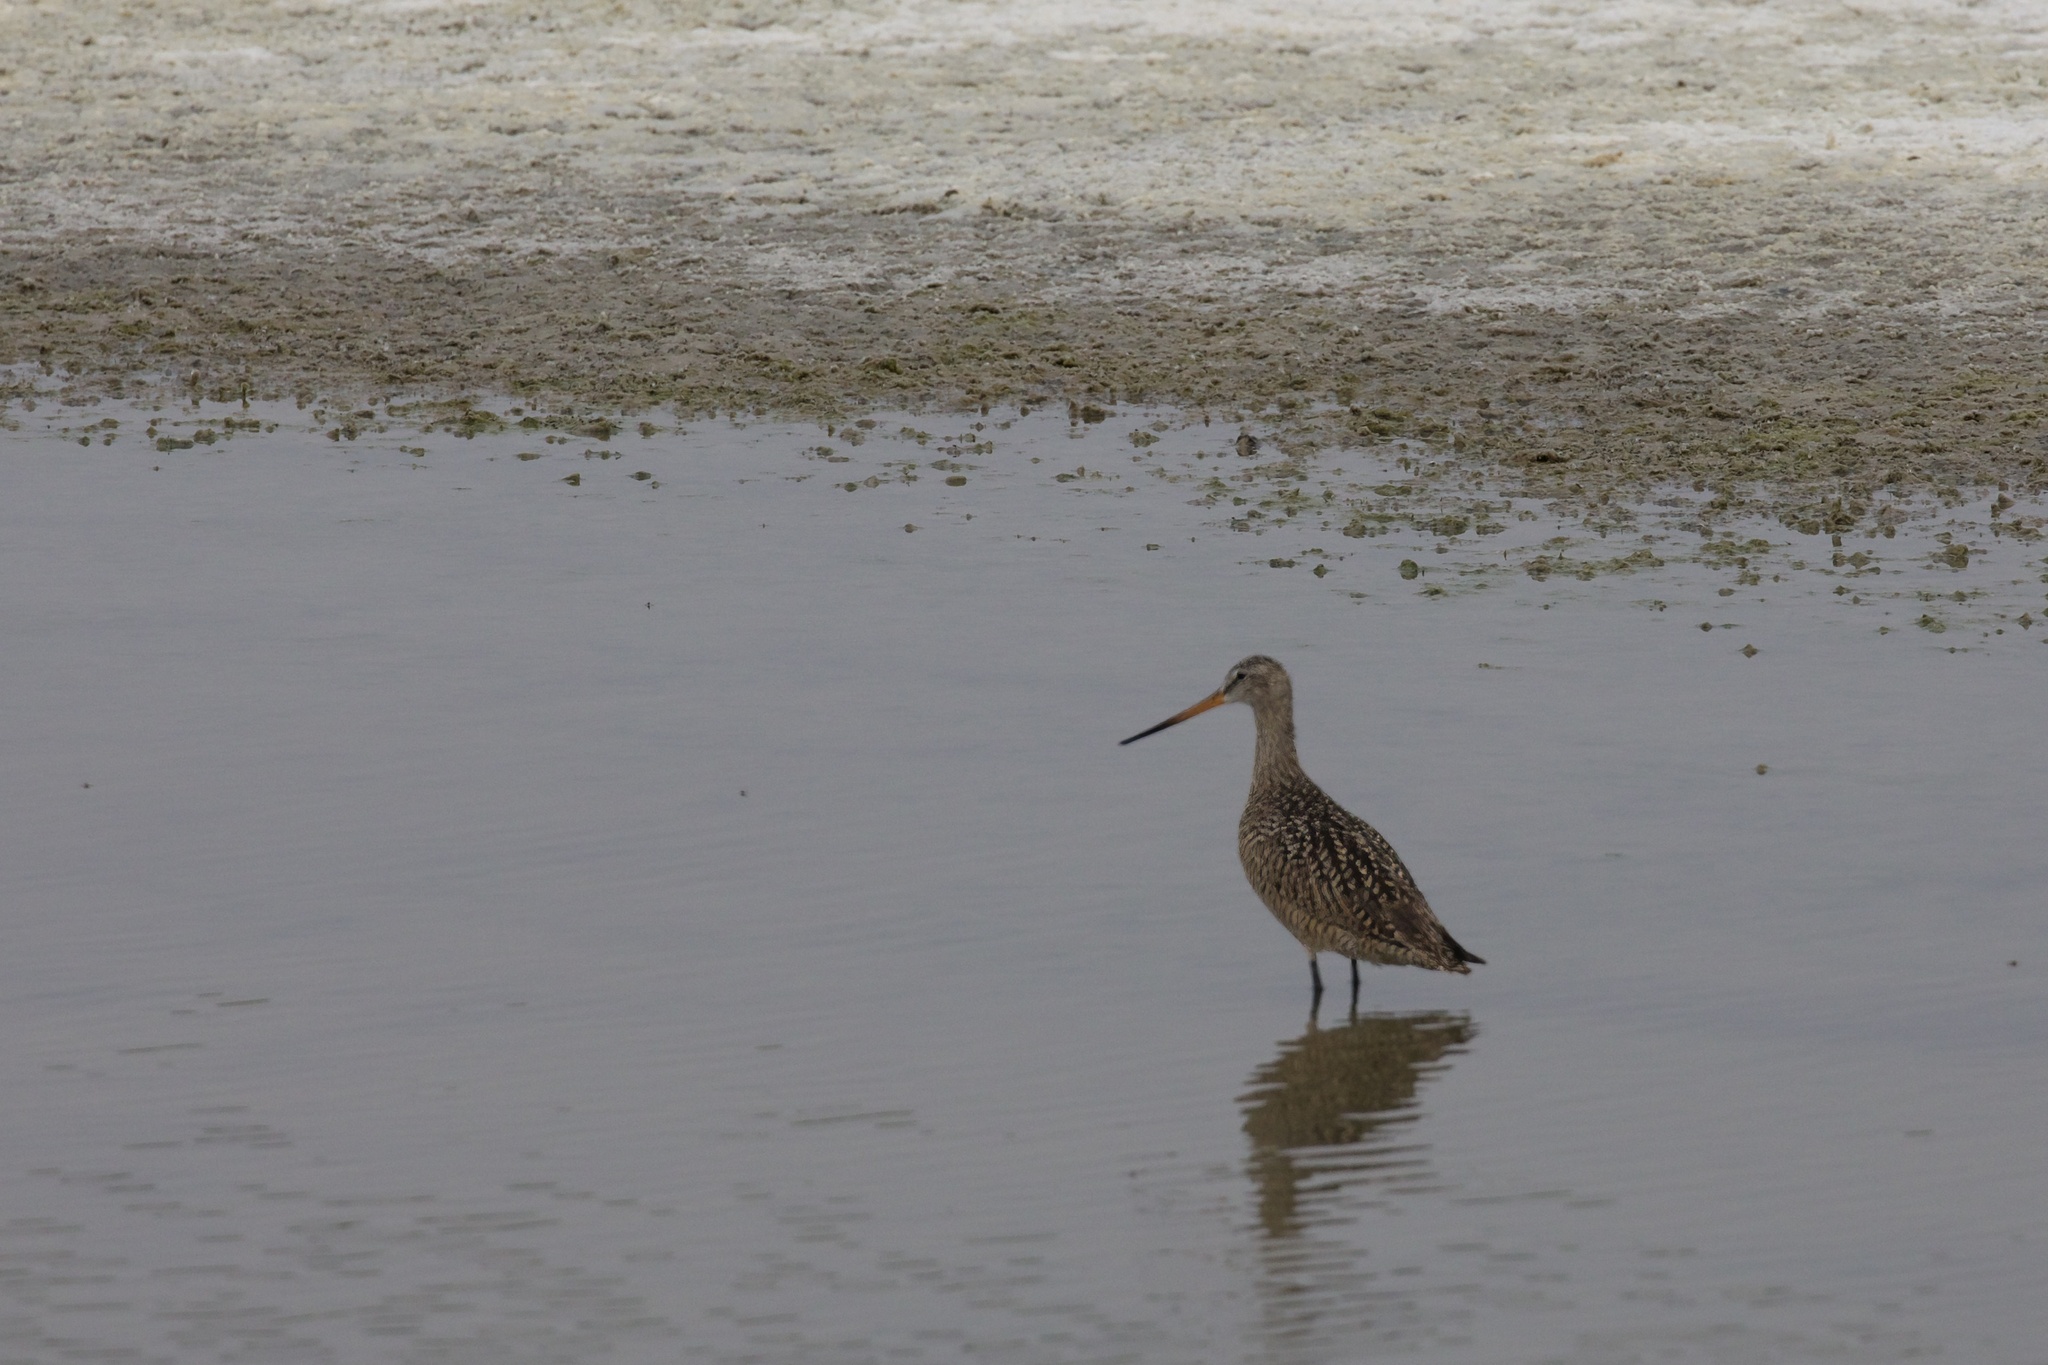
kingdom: Animalia
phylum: Chordata
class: Aves
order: Charadriiformes
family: Scolopacidae
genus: Limosa
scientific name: Limosa fedoa
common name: Marbled godwit
